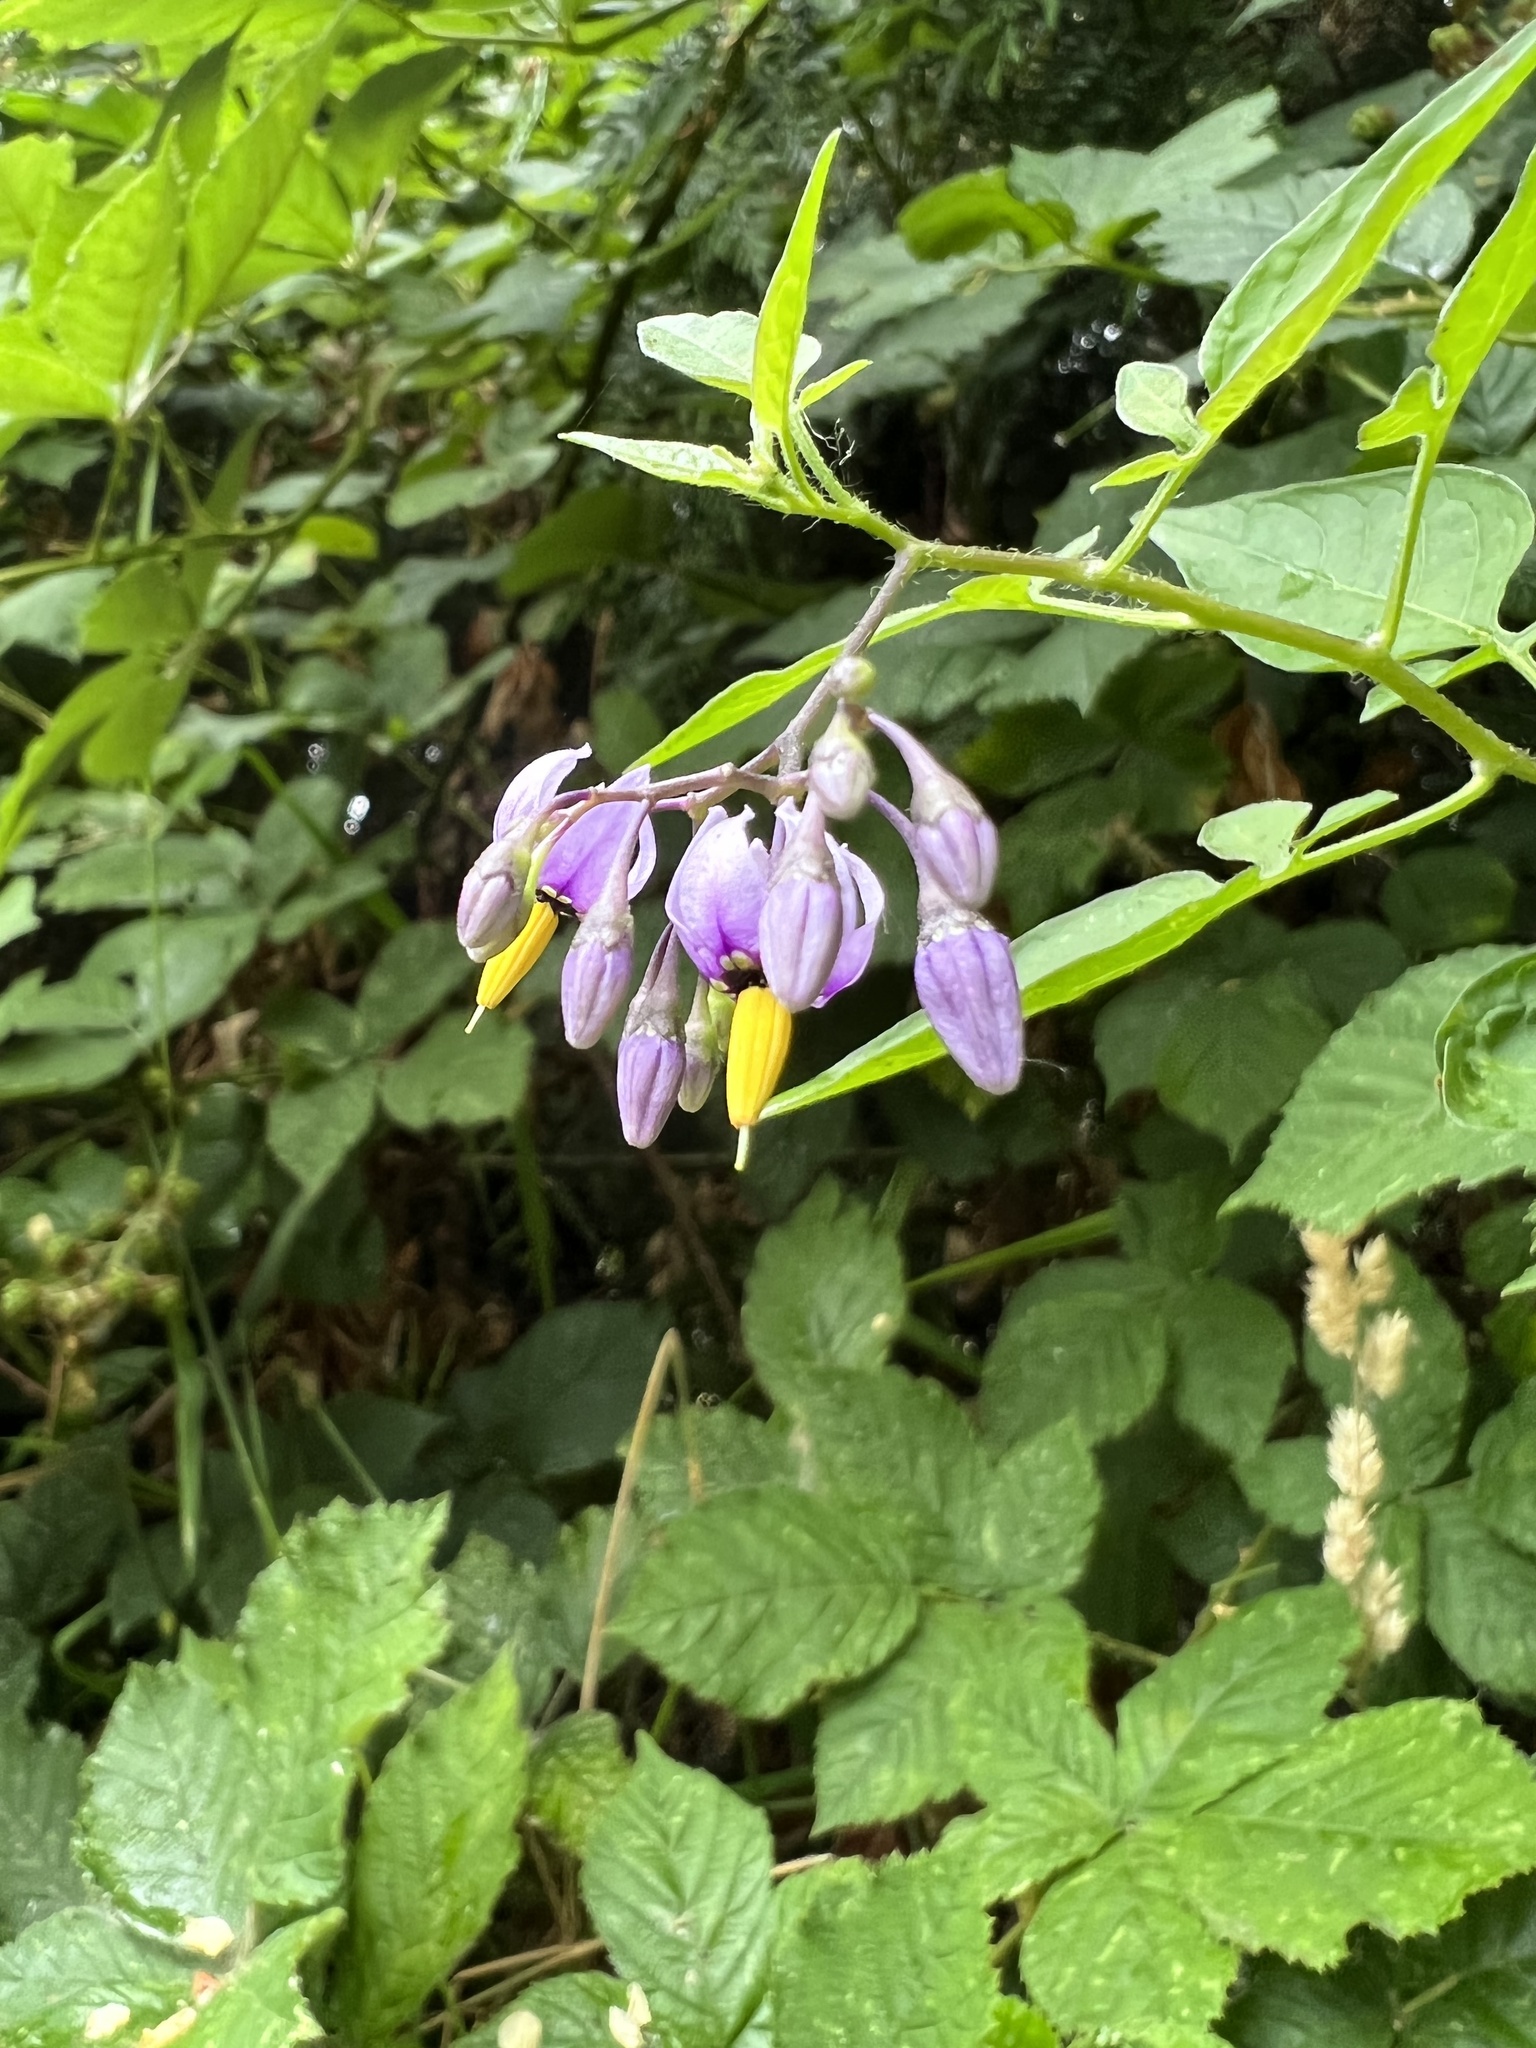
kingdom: Plantae
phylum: Tracheophyta
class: Magnoliopsida
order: Solanales
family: Solanaceae
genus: Solanum
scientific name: Solanum dulcamara
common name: Climbing nightshade
